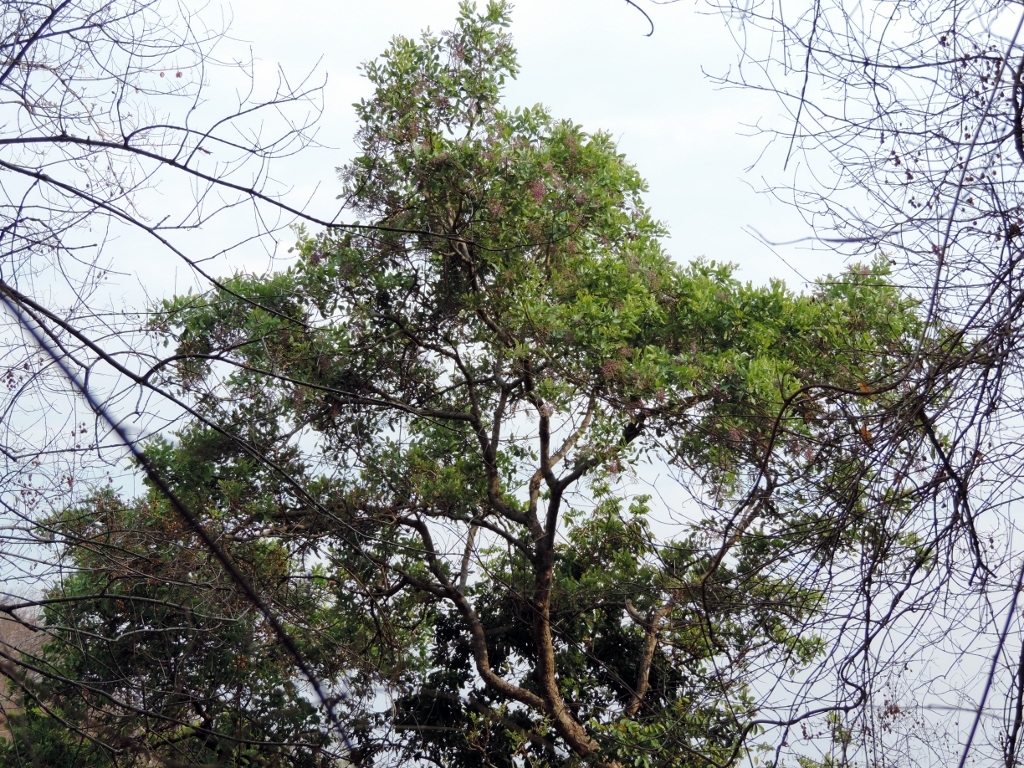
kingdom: Plantae
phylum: Tracheophyta
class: Magnoliopsida
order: Fabales
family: Fabaceae
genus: Philenoptera
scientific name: Philenoptera violacea
